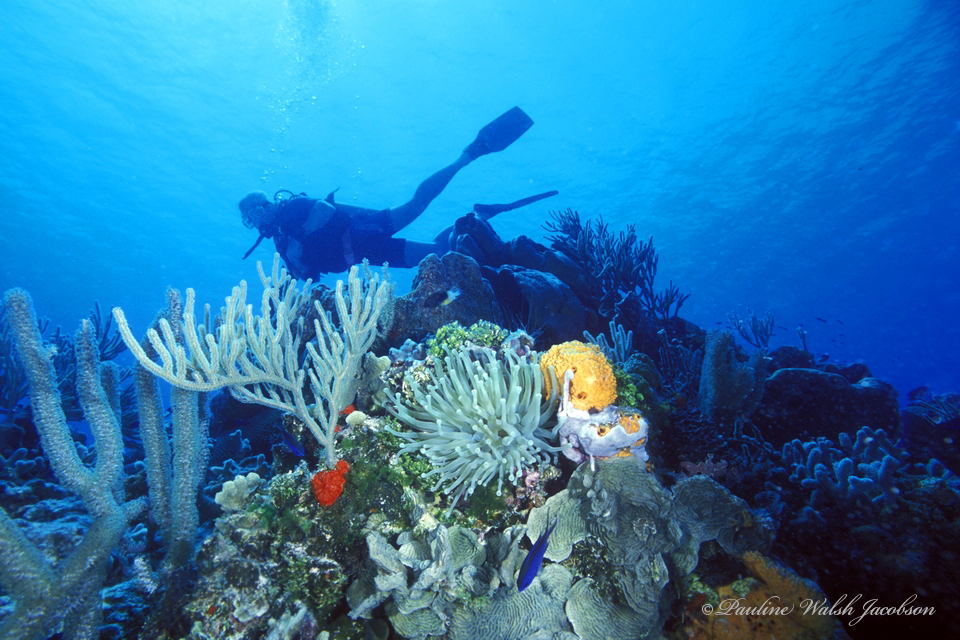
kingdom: Animalia
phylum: Cnidaria
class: Anthozoa
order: Actiniaria
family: Actiniidae
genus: Condylactis
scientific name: Condylactis gigantea
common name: Giant caribbean anemone
